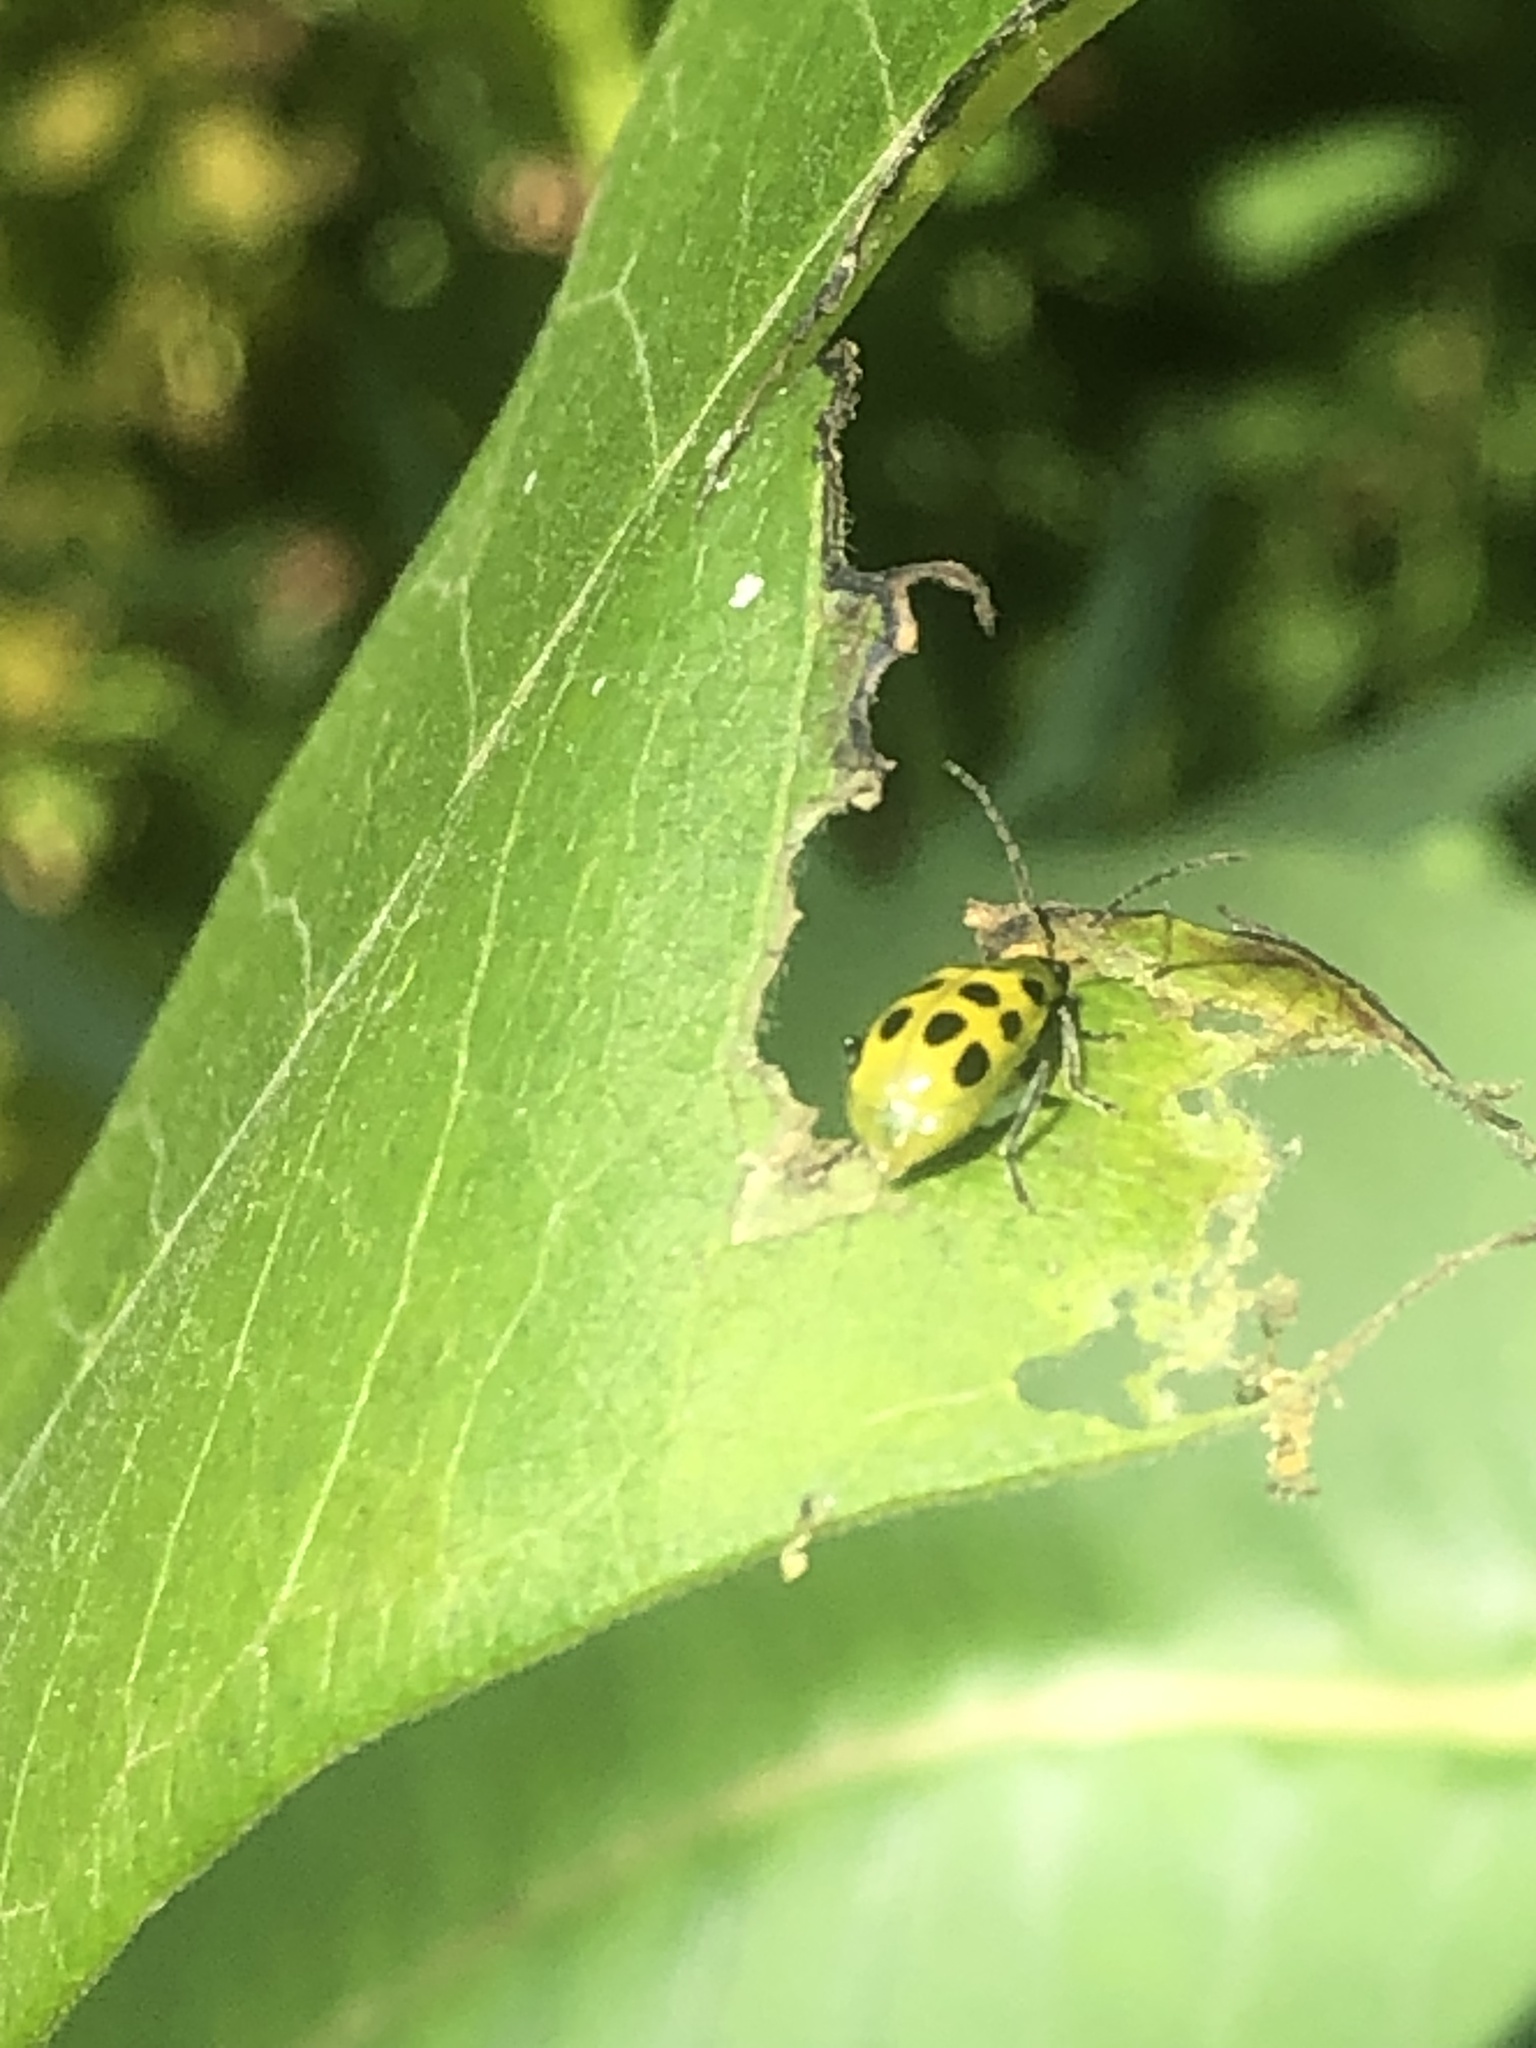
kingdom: Animalia
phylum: Arthropoda
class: Insecta
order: Coleoptera
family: Chrysomelidae
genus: Diabrotica
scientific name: Diabrotica undecimpunctata
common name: Spotted cucumber beetle
